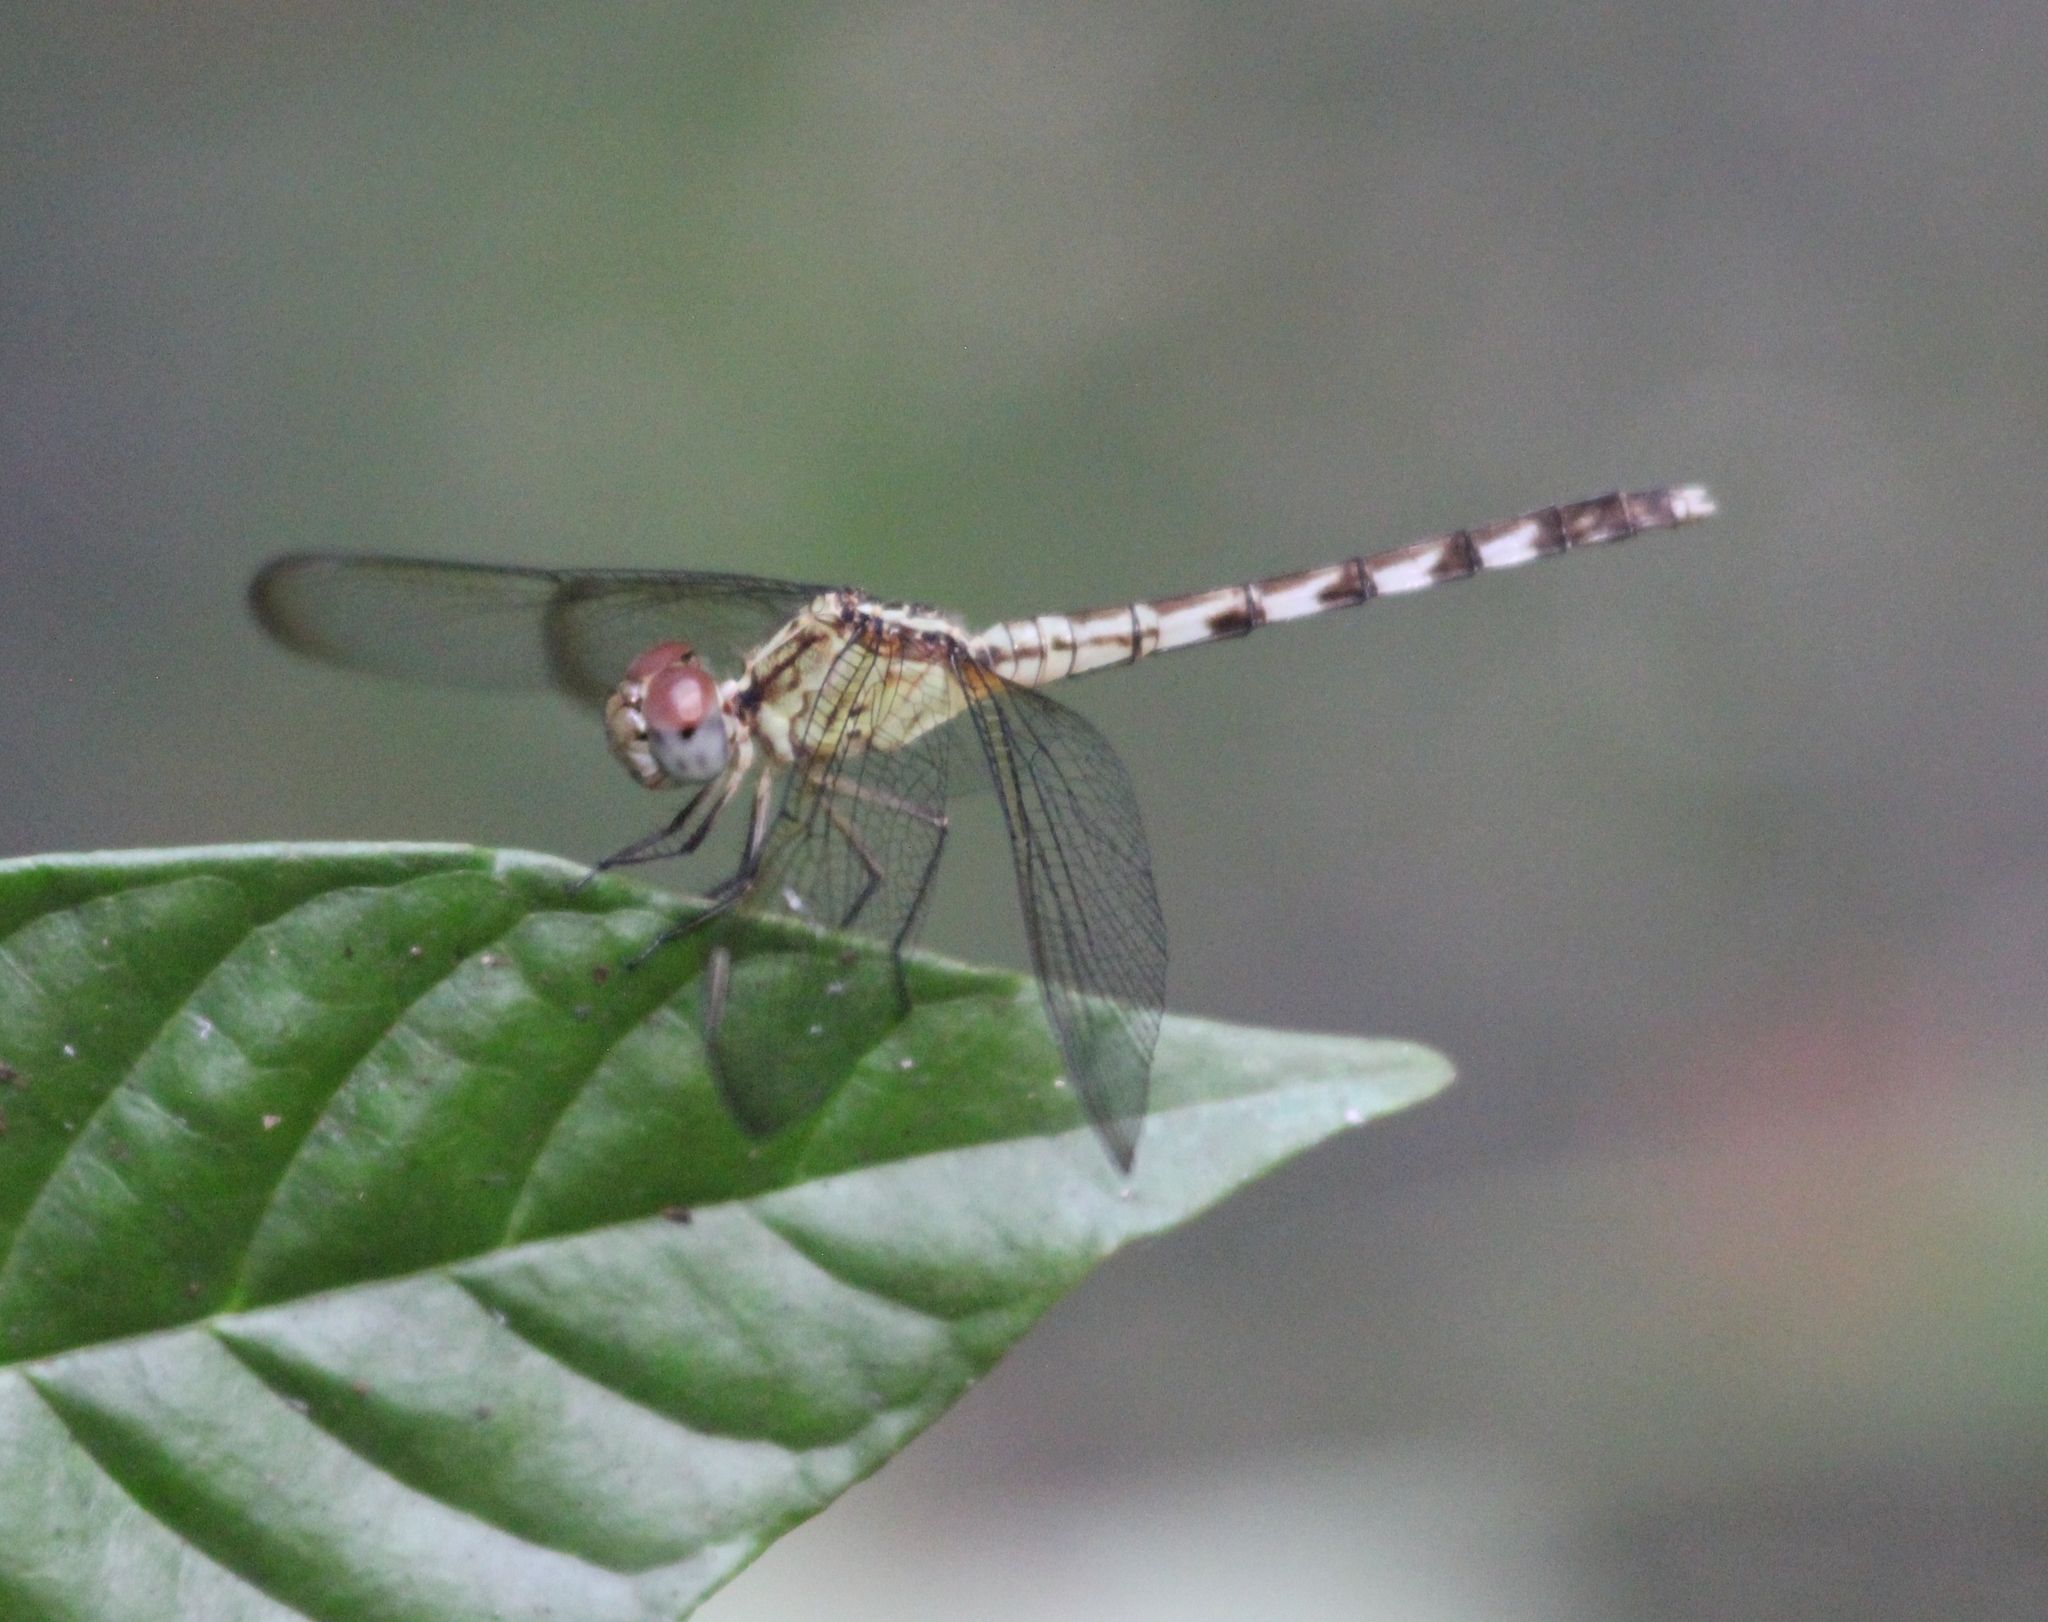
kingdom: Animalia
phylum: Arthropoda
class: Insecta
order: Odonata
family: Libellulidae
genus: Erythrodiplax
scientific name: Erythrodiplax umbrata
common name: Band-winged dragonlet
